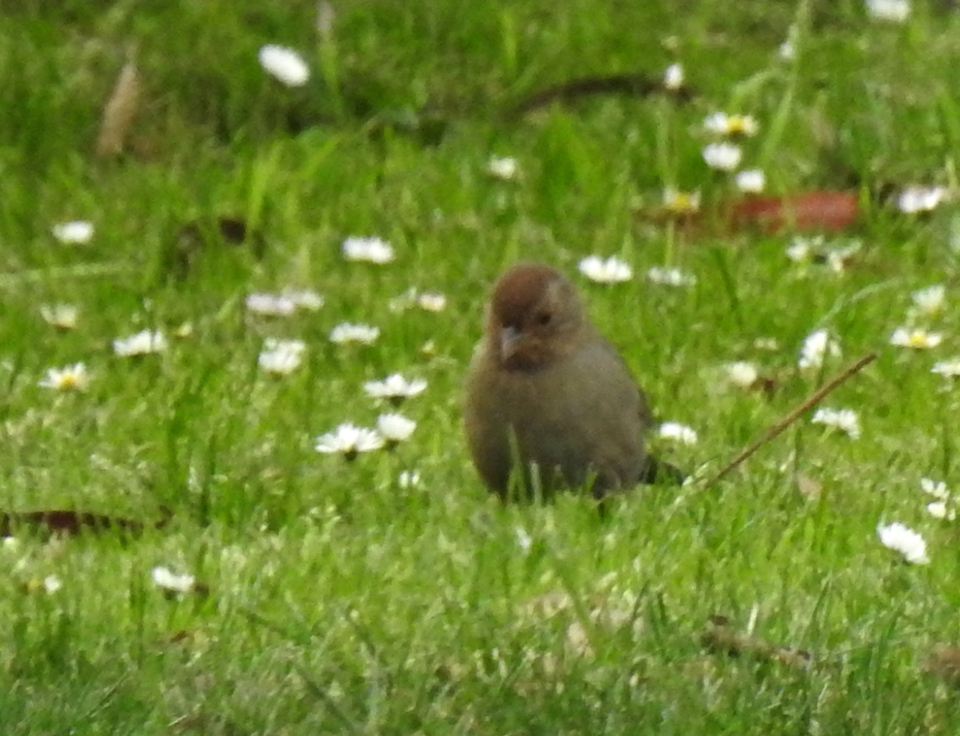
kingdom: Animalia
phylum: Chordata
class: Aves
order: Passeriformes
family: Passerellidae
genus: Melozone
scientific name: Melozone crissalis
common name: California towhee
